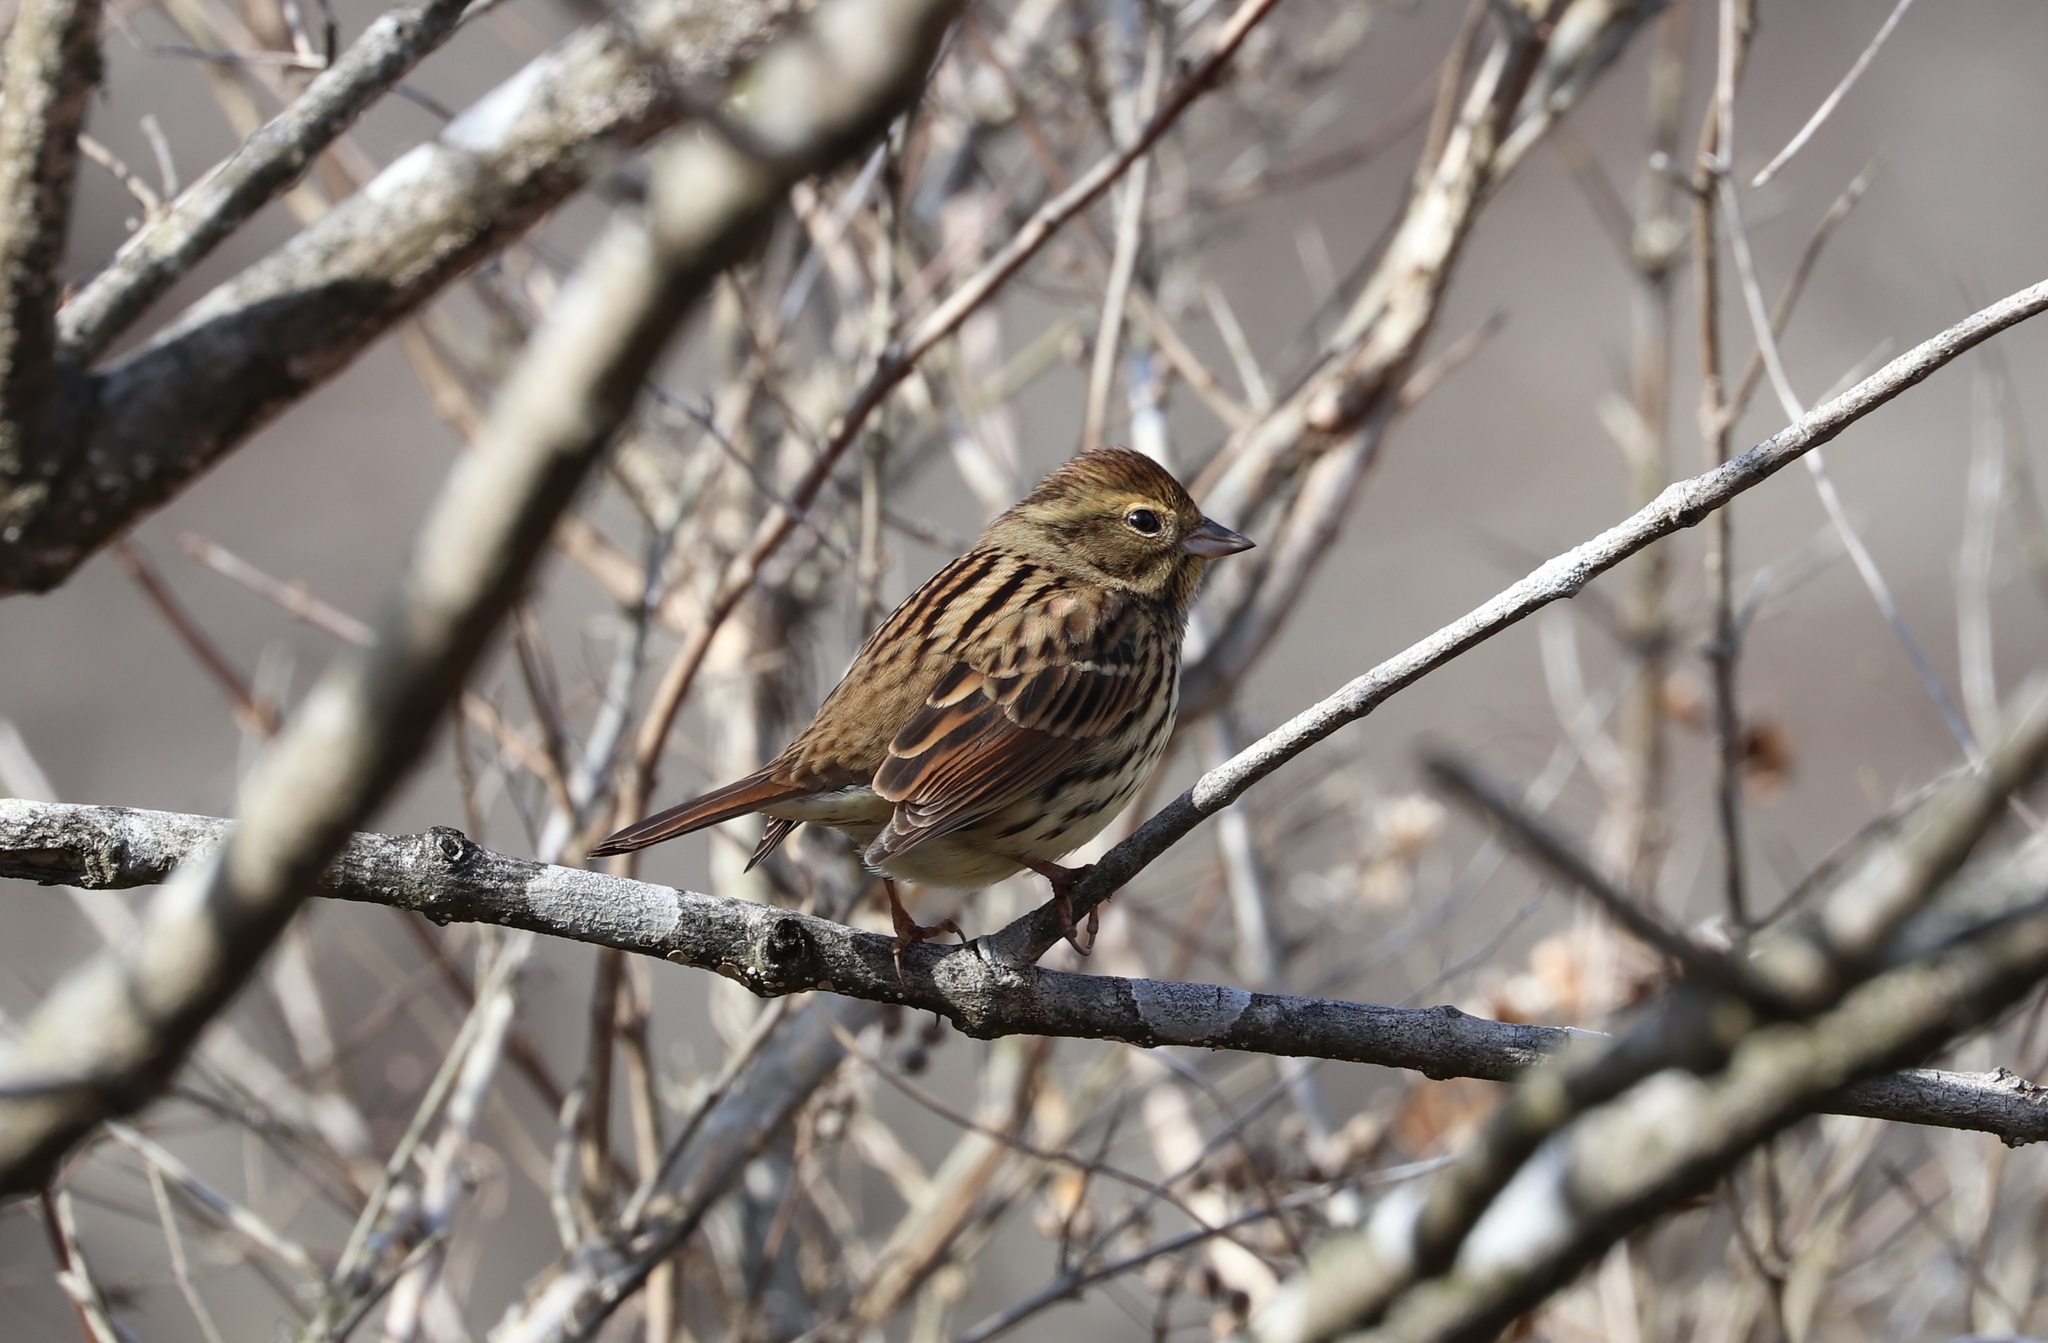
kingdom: Animalia
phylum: Chordata
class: Aves
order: Passeriformes
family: Emberizidae
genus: Emberiza
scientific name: Emberiza personata
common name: Masked bunting
